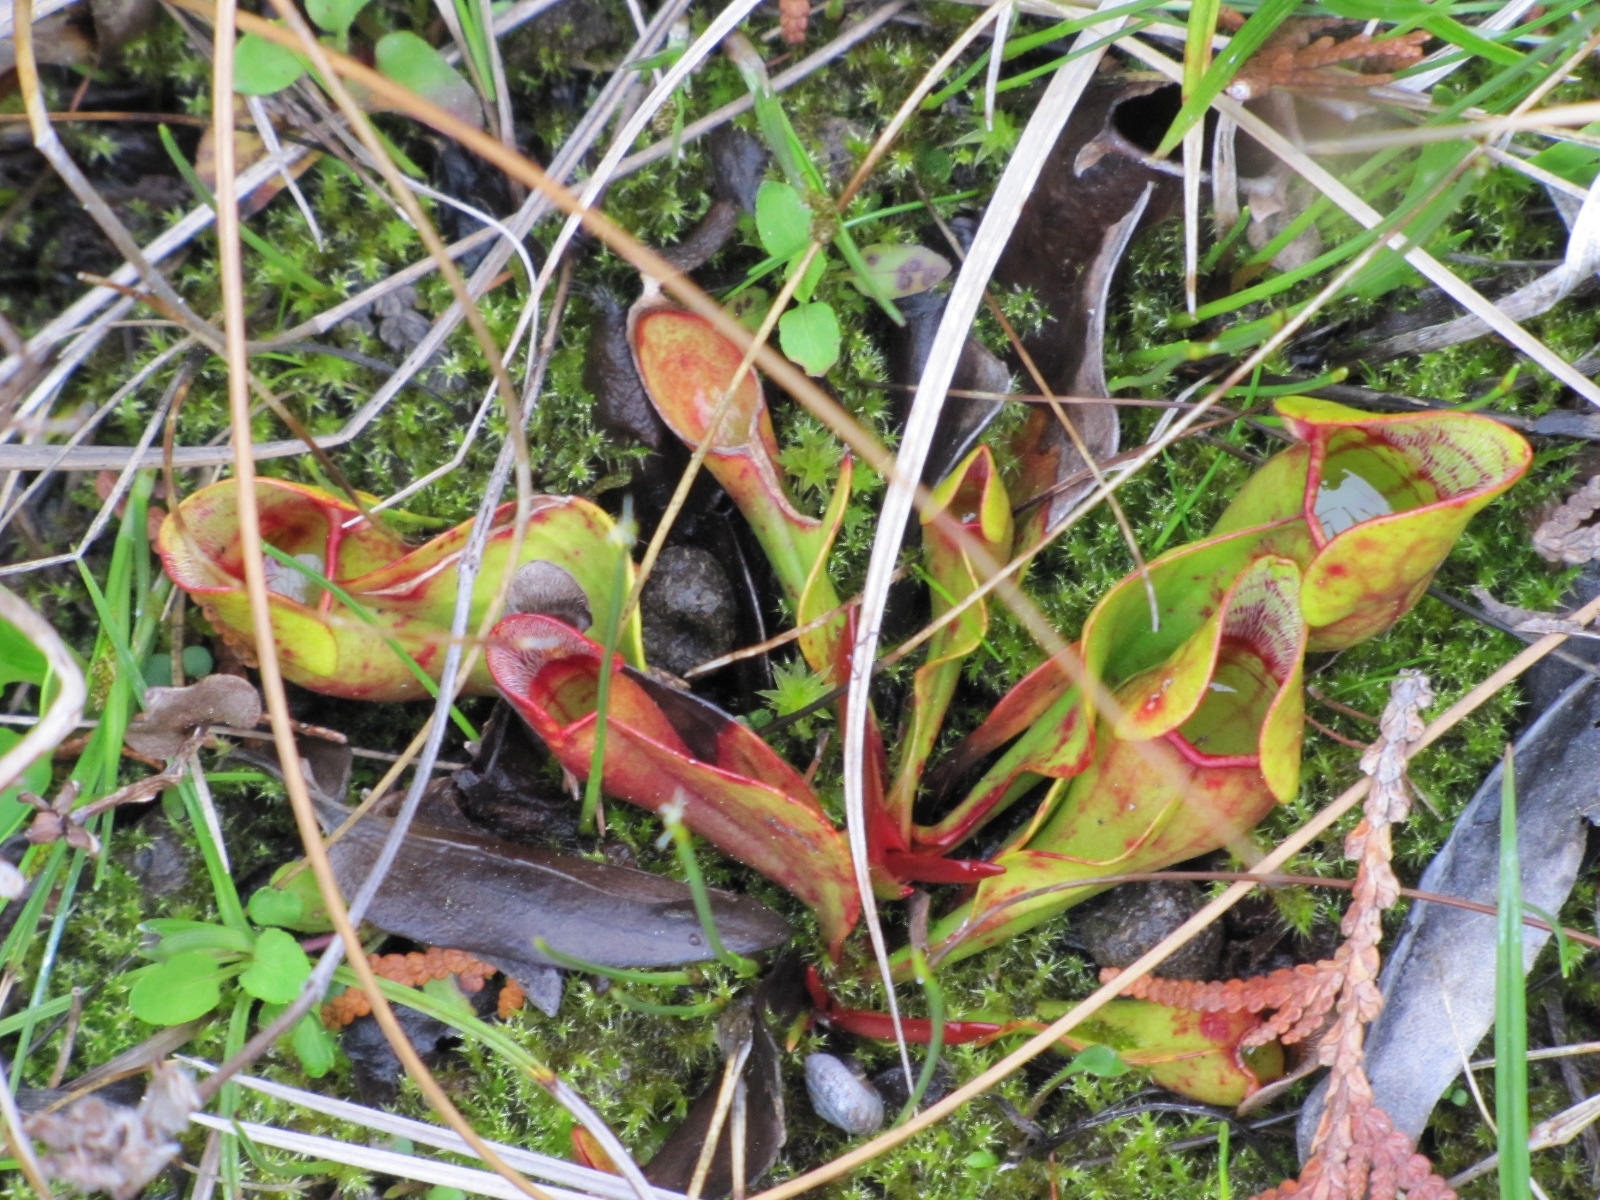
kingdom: Plantae
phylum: Tracheophyta
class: Magnoliopsida
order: Ericales
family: Sarraceniaceae
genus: Sarracenia
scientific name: Sarracenia purpurea
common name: Pitcherplant
